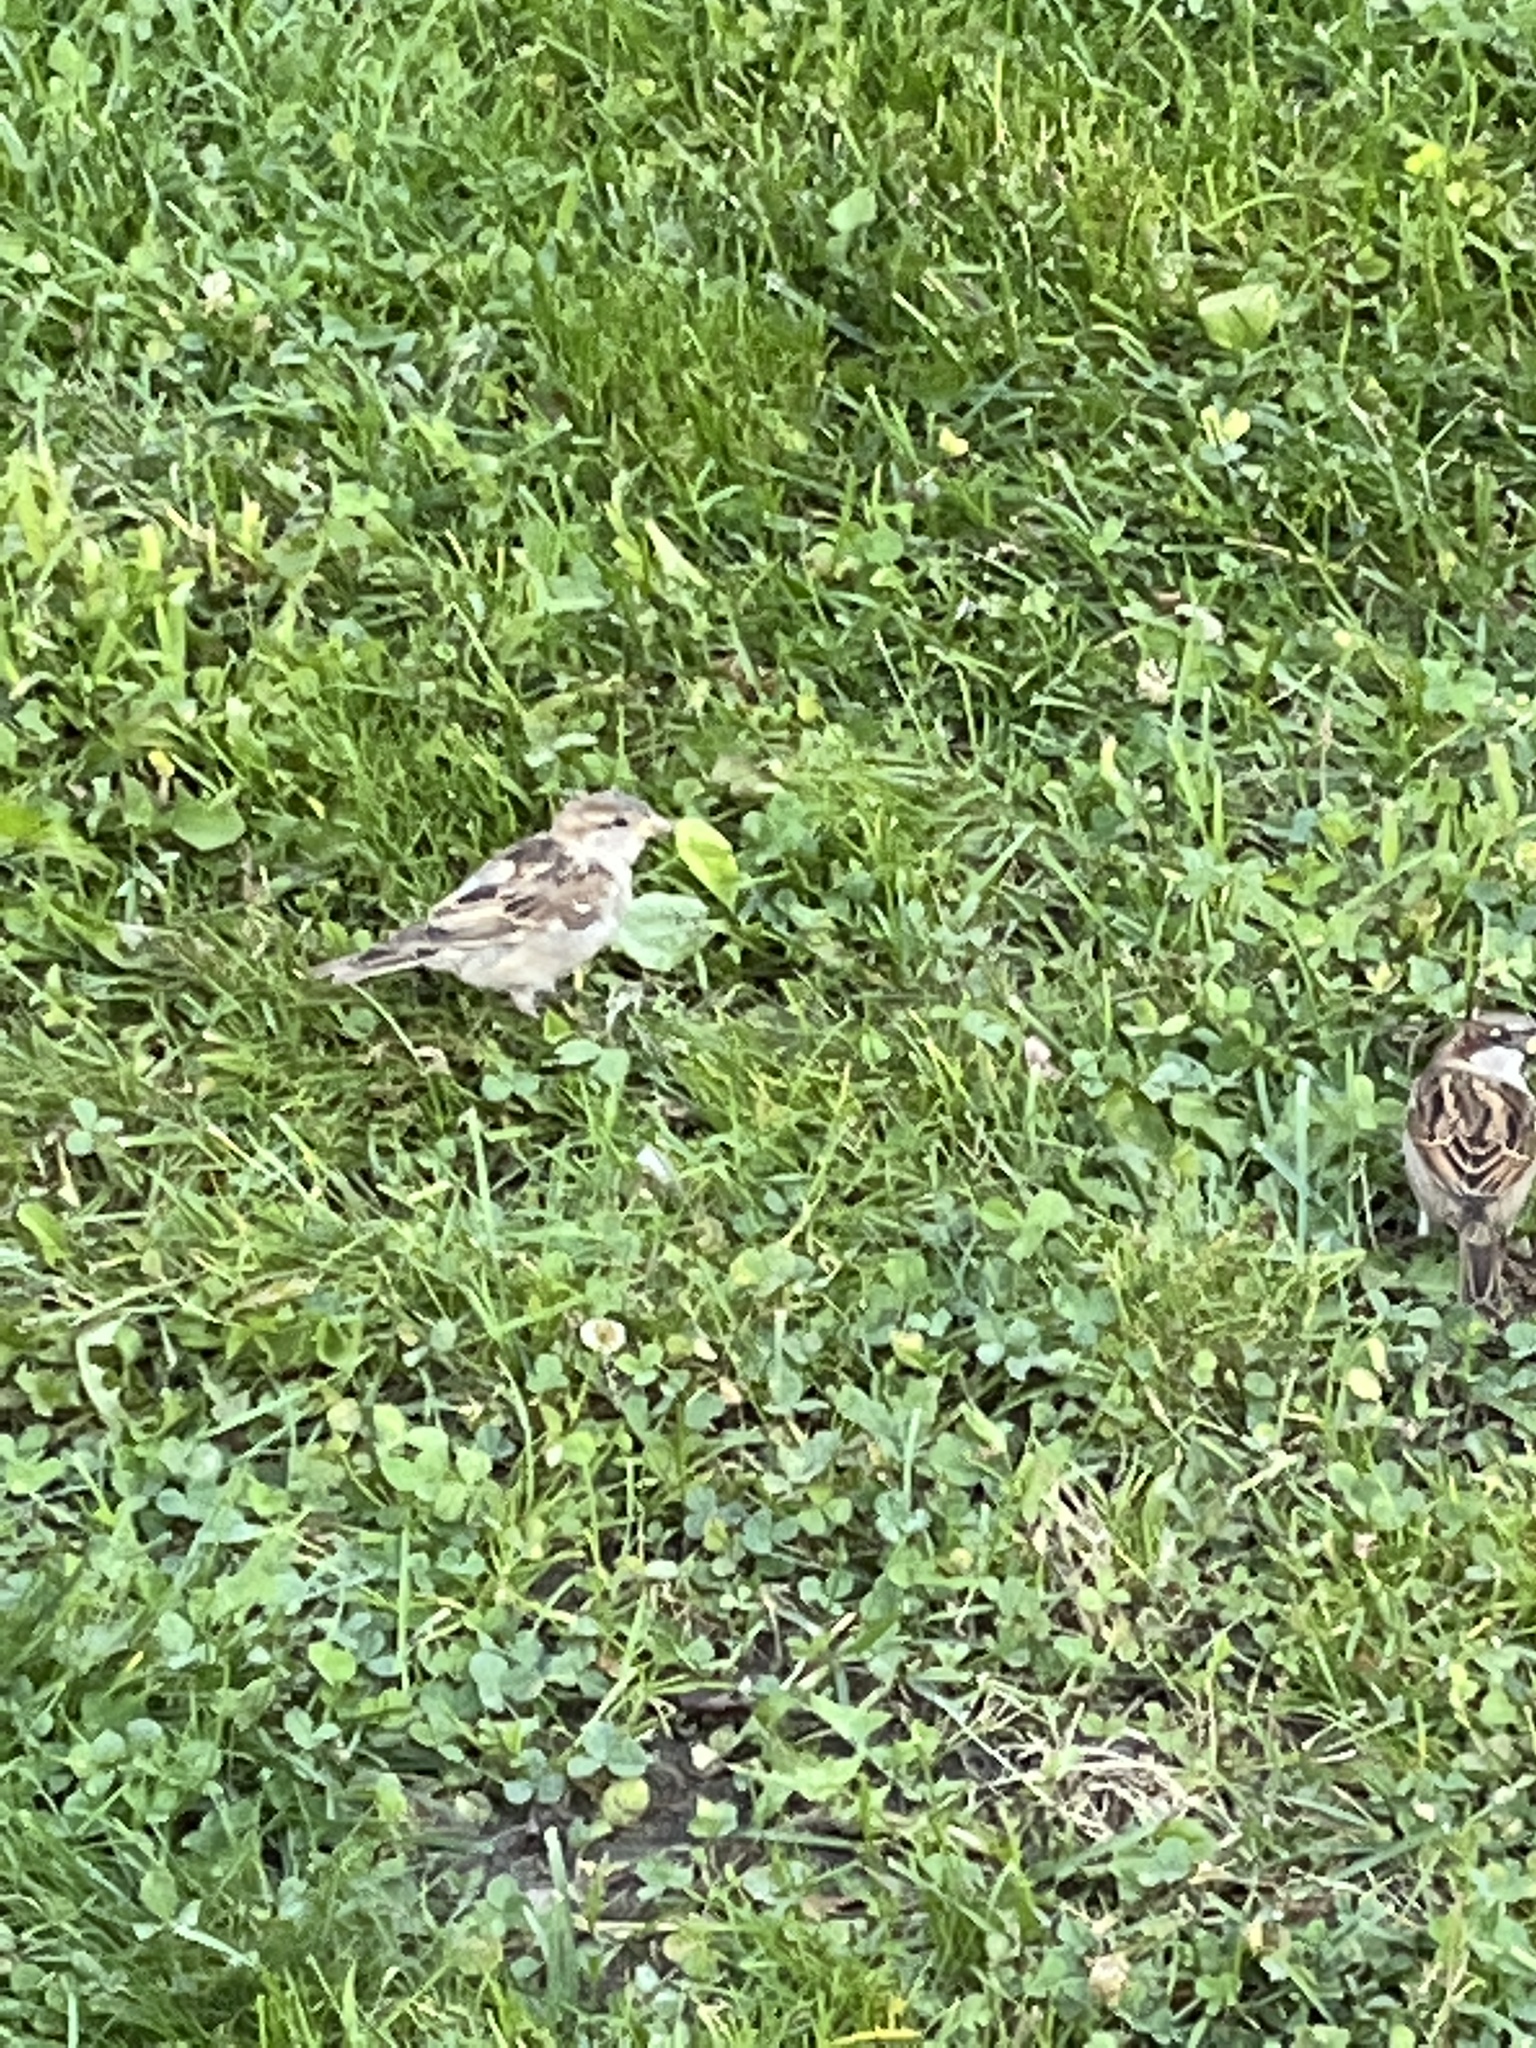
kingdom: Animalia
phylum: Chordata
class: Aves
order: Passeriformes
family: Passeridae
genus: Passer
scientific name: Passer domesticus
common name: House sparrow
